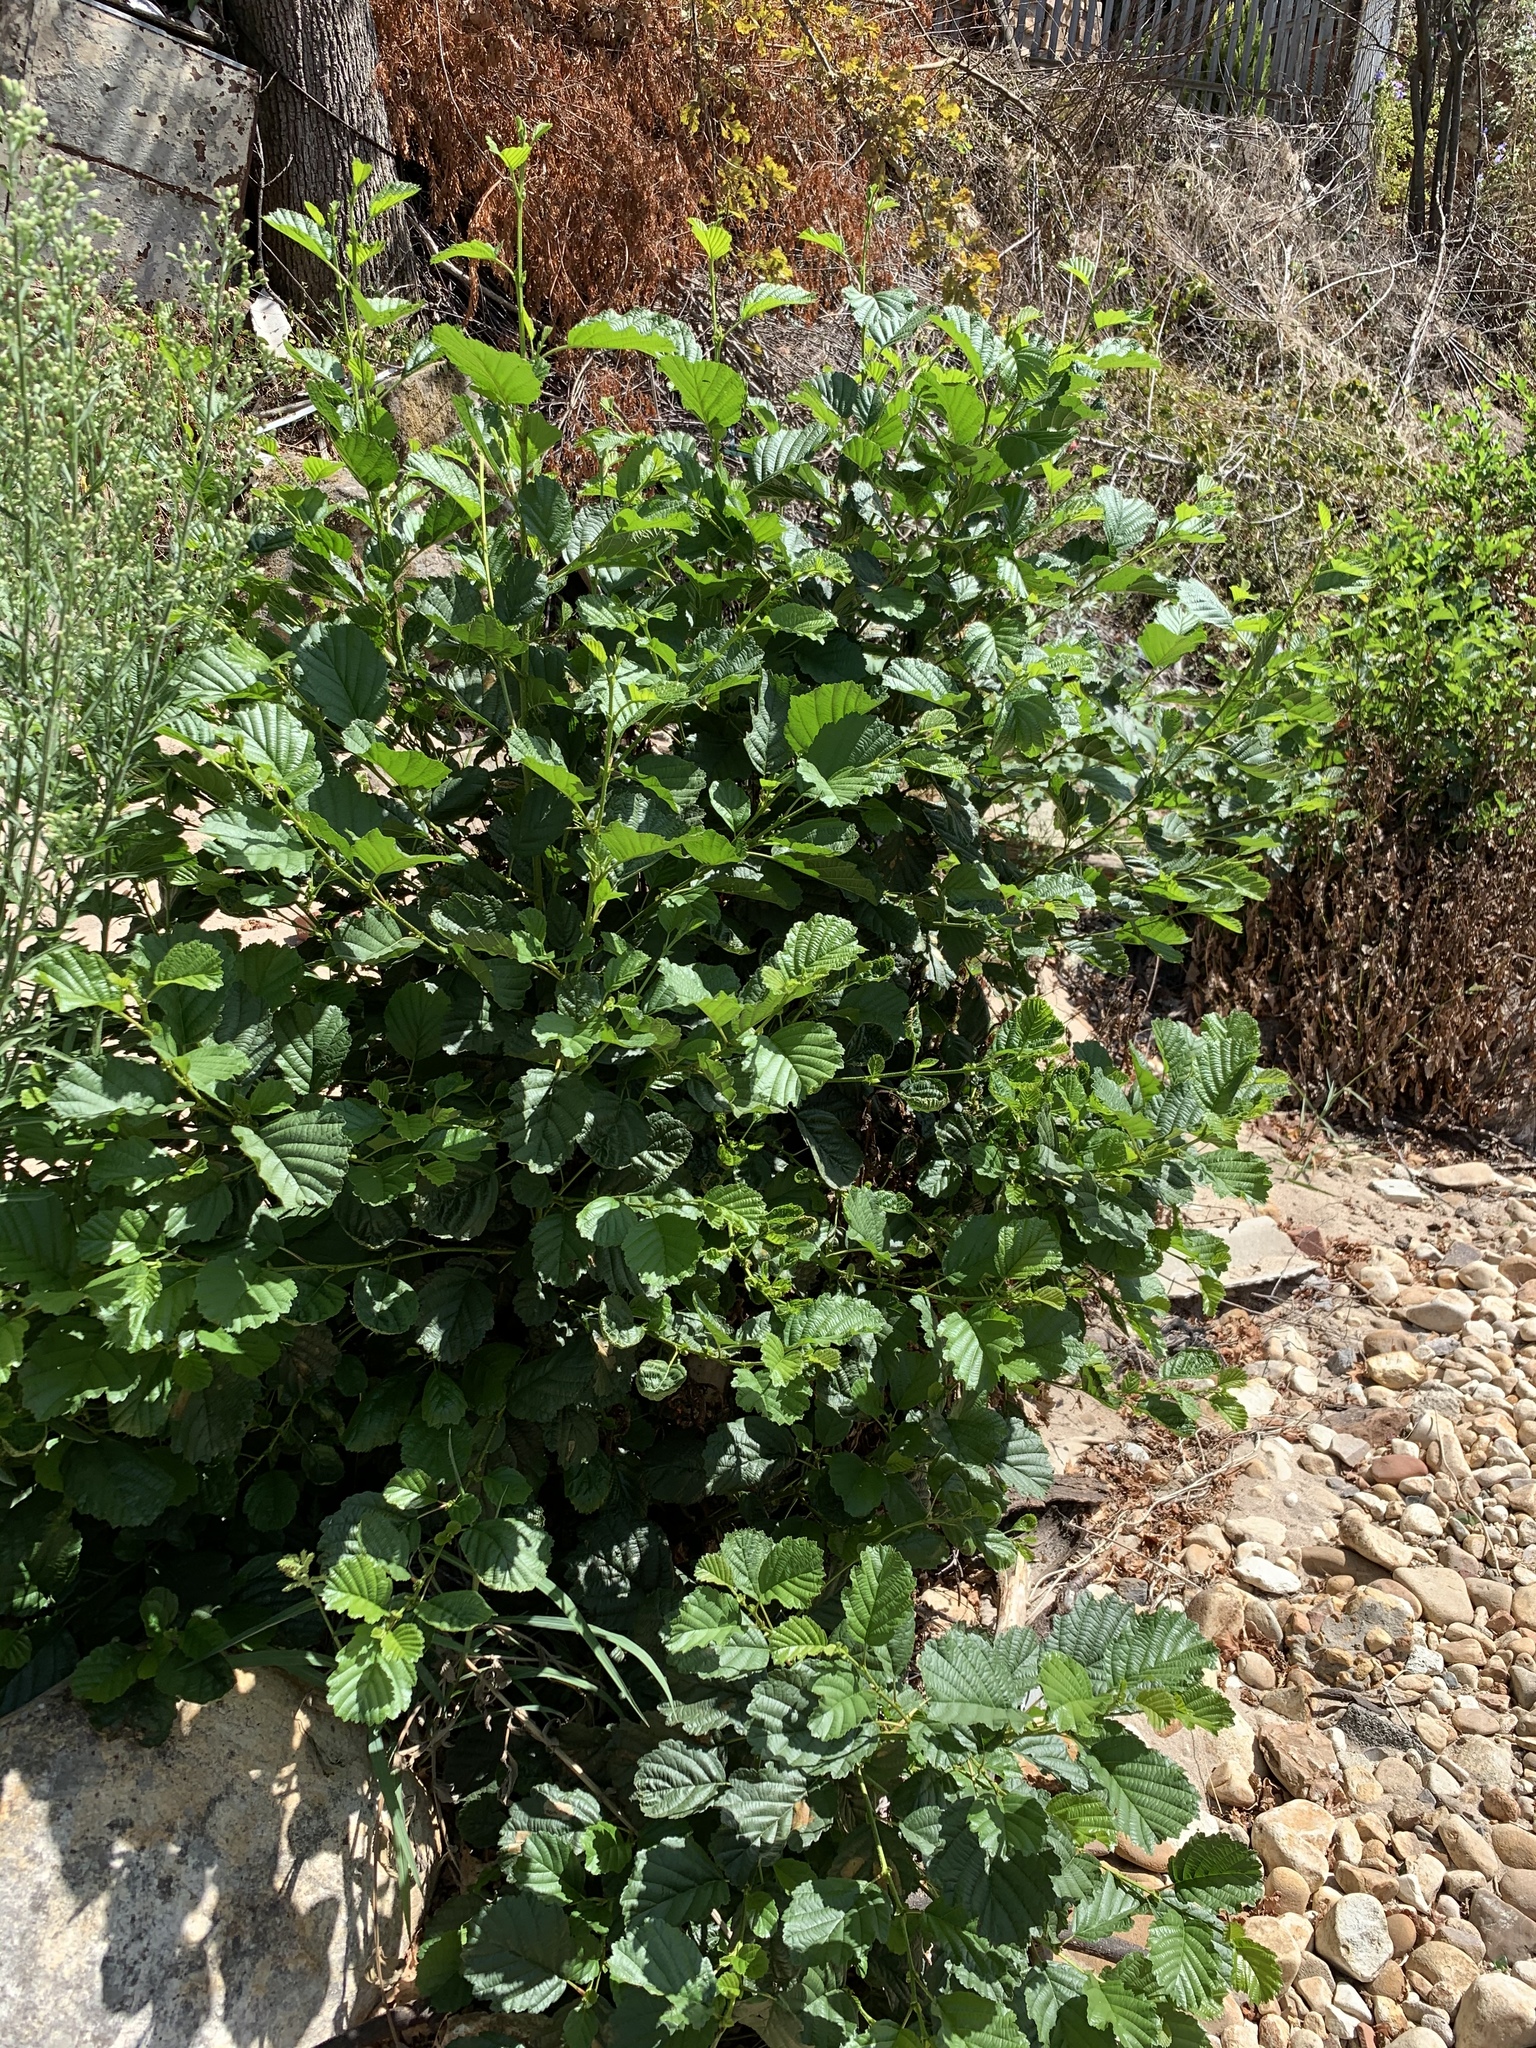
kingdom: Plantae
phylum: Tracheophyta
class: Magnoliopsida
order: Fagales
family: Betulaceae
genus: Alnus
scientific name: Alnus glutinosa
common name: Black alder
